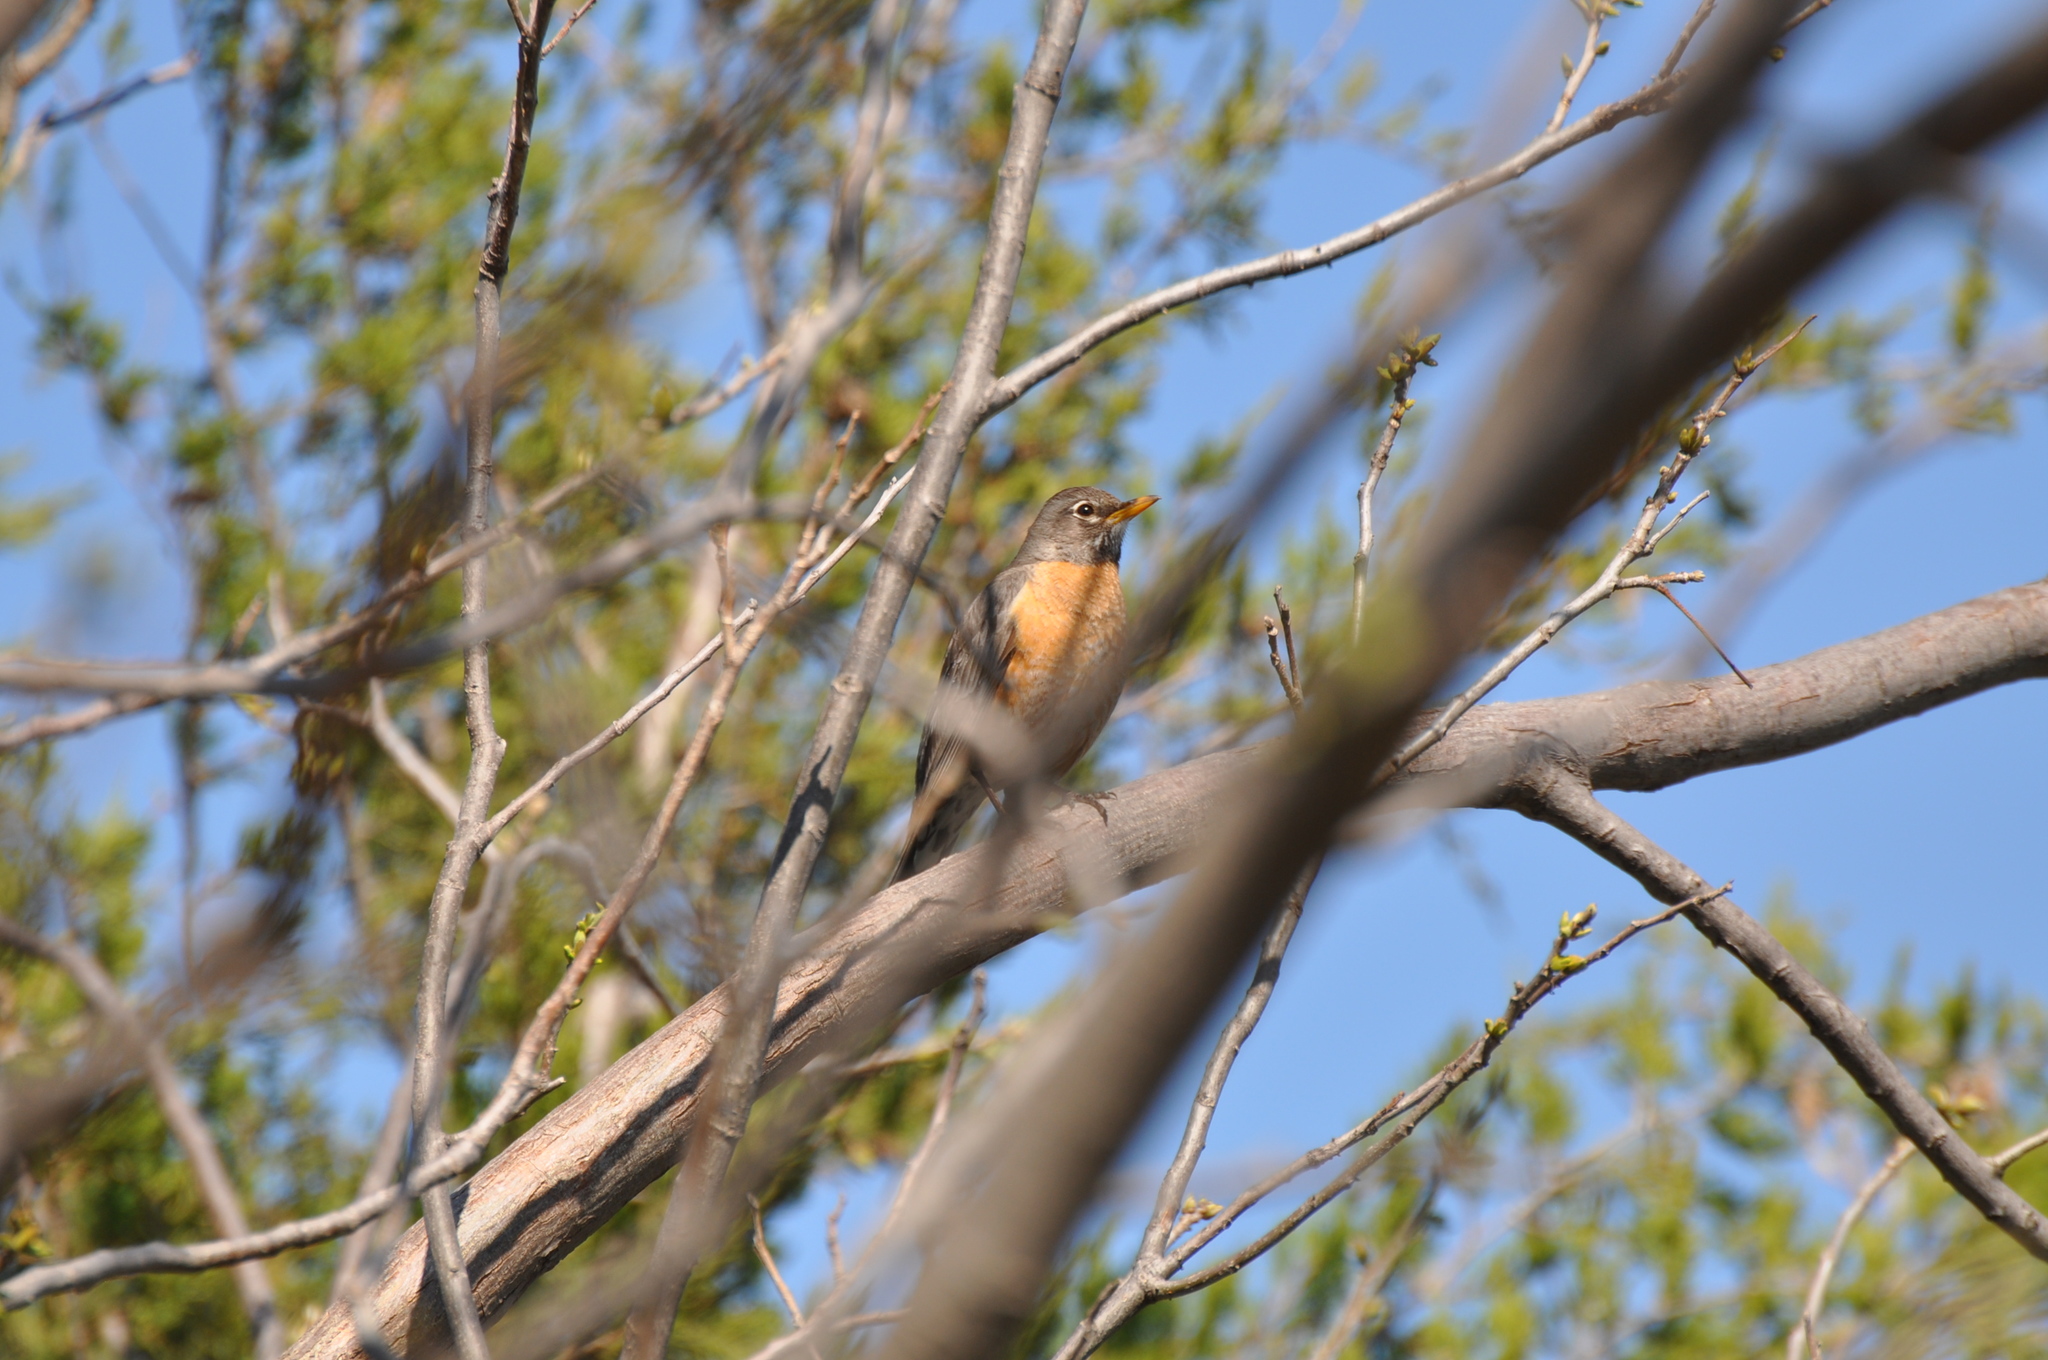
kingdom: Animalia
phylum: Chordata
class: Aves
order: Passeriformes
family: Turdidae
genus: Turdus
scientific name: Turdus migratorius
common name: American robin
